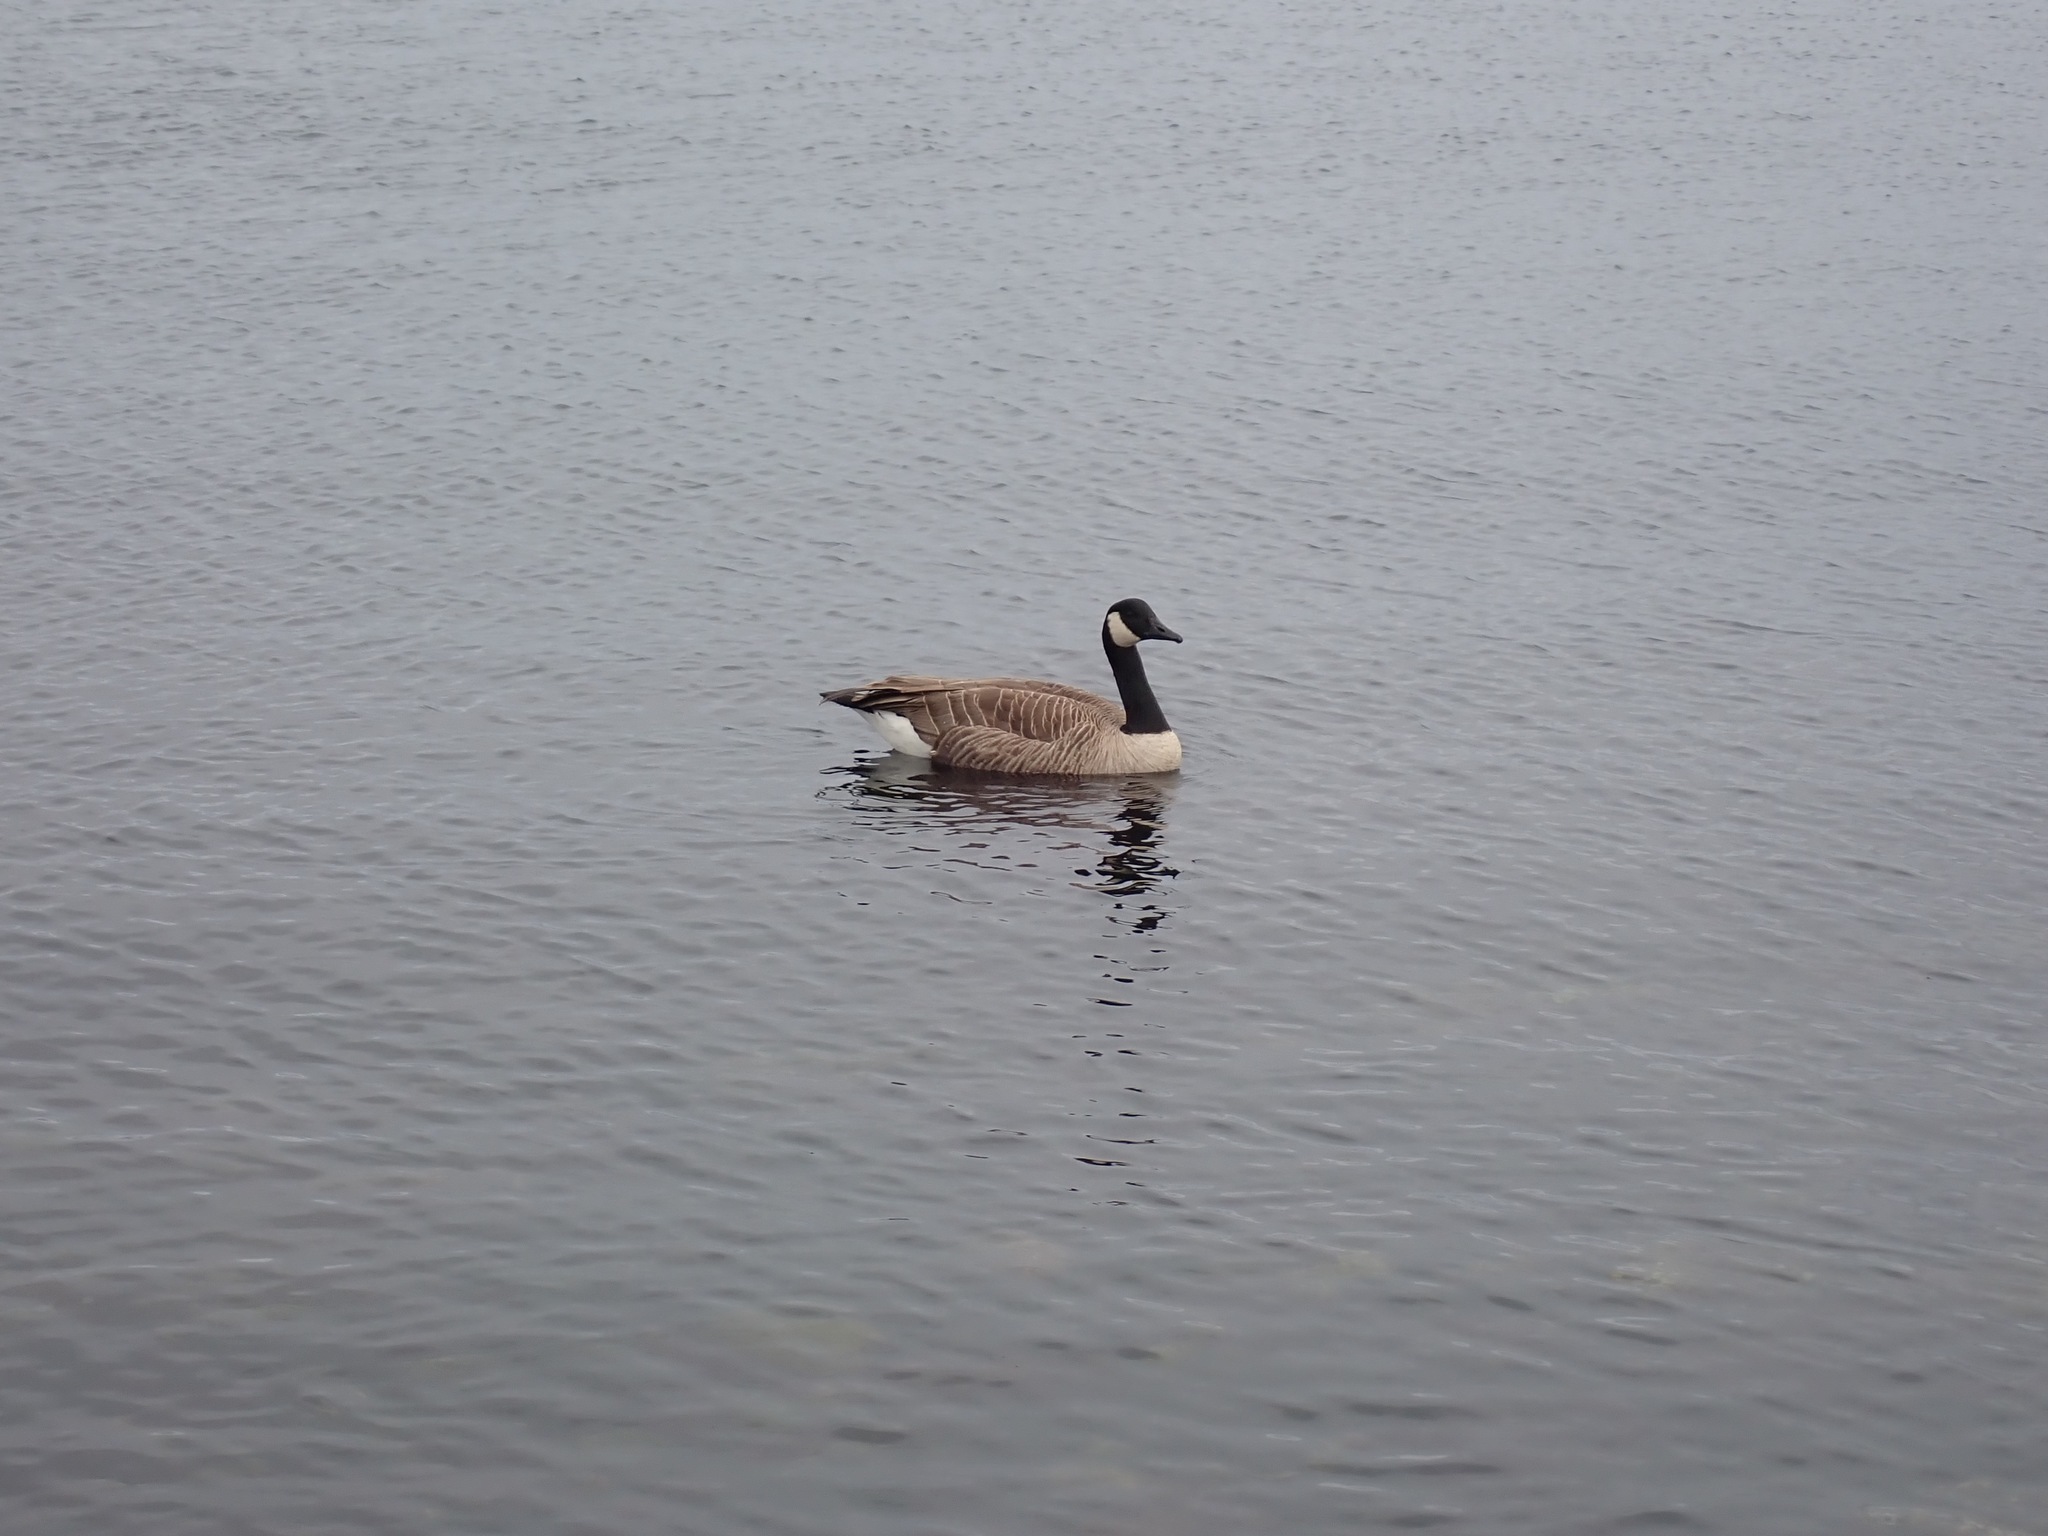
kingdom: Animalia
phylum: Chordata
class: Aves
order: Anseriformes
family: Anatidae
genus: Branta
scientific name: Branta canadensis
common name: Canada goose
